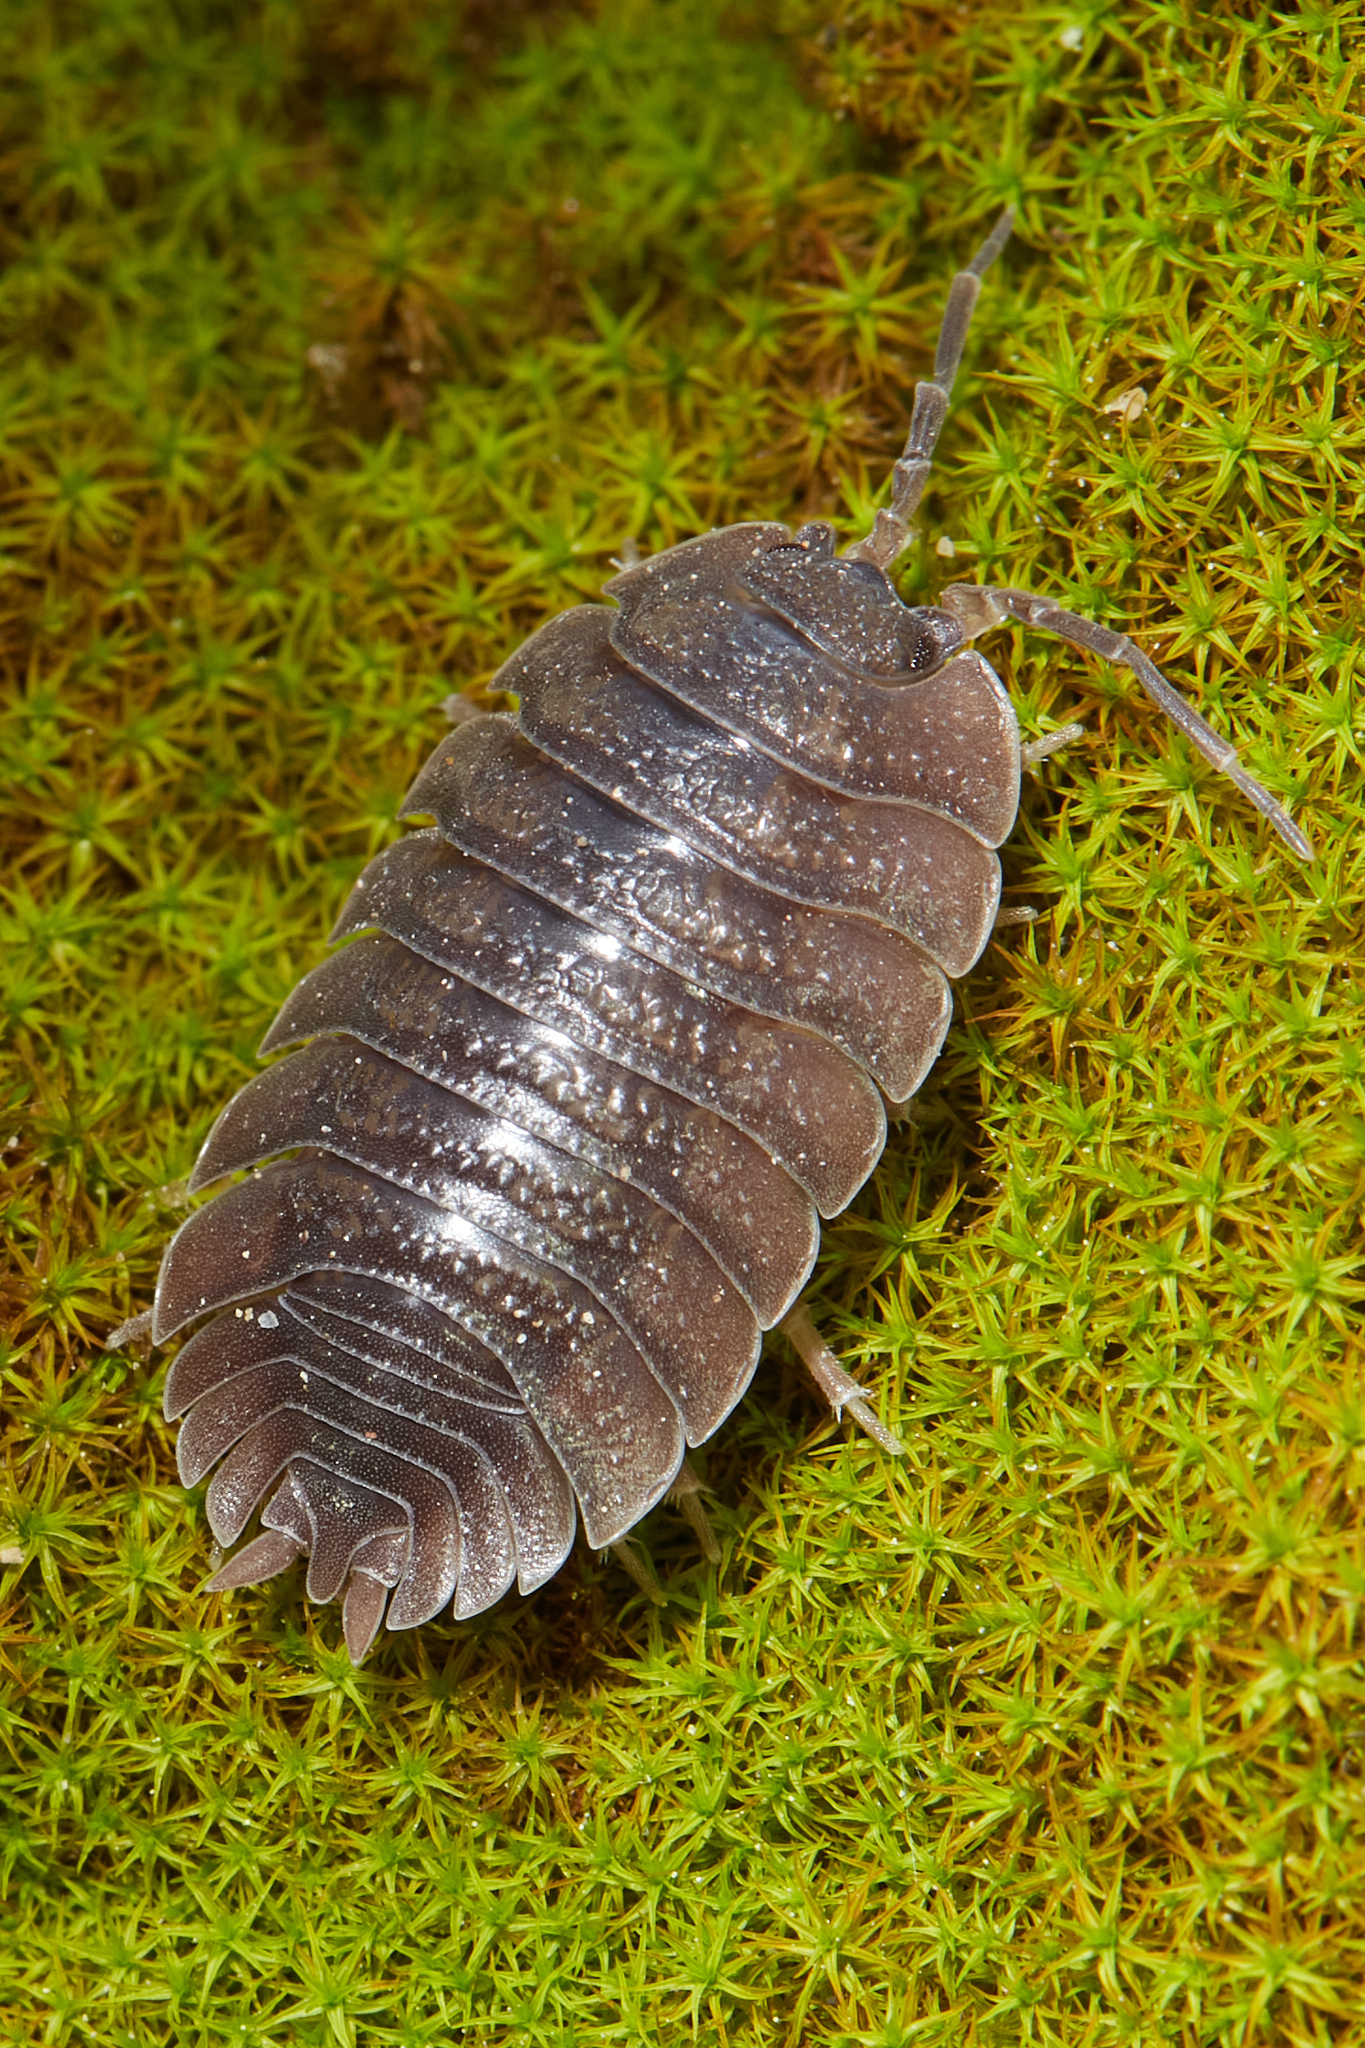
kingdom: Animalia
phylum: Arthropoda
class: Malacostraca
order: Isopoda
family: Porcellionidae
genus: Porcellio
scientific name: Porcellio dilatatus
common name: Isopod
